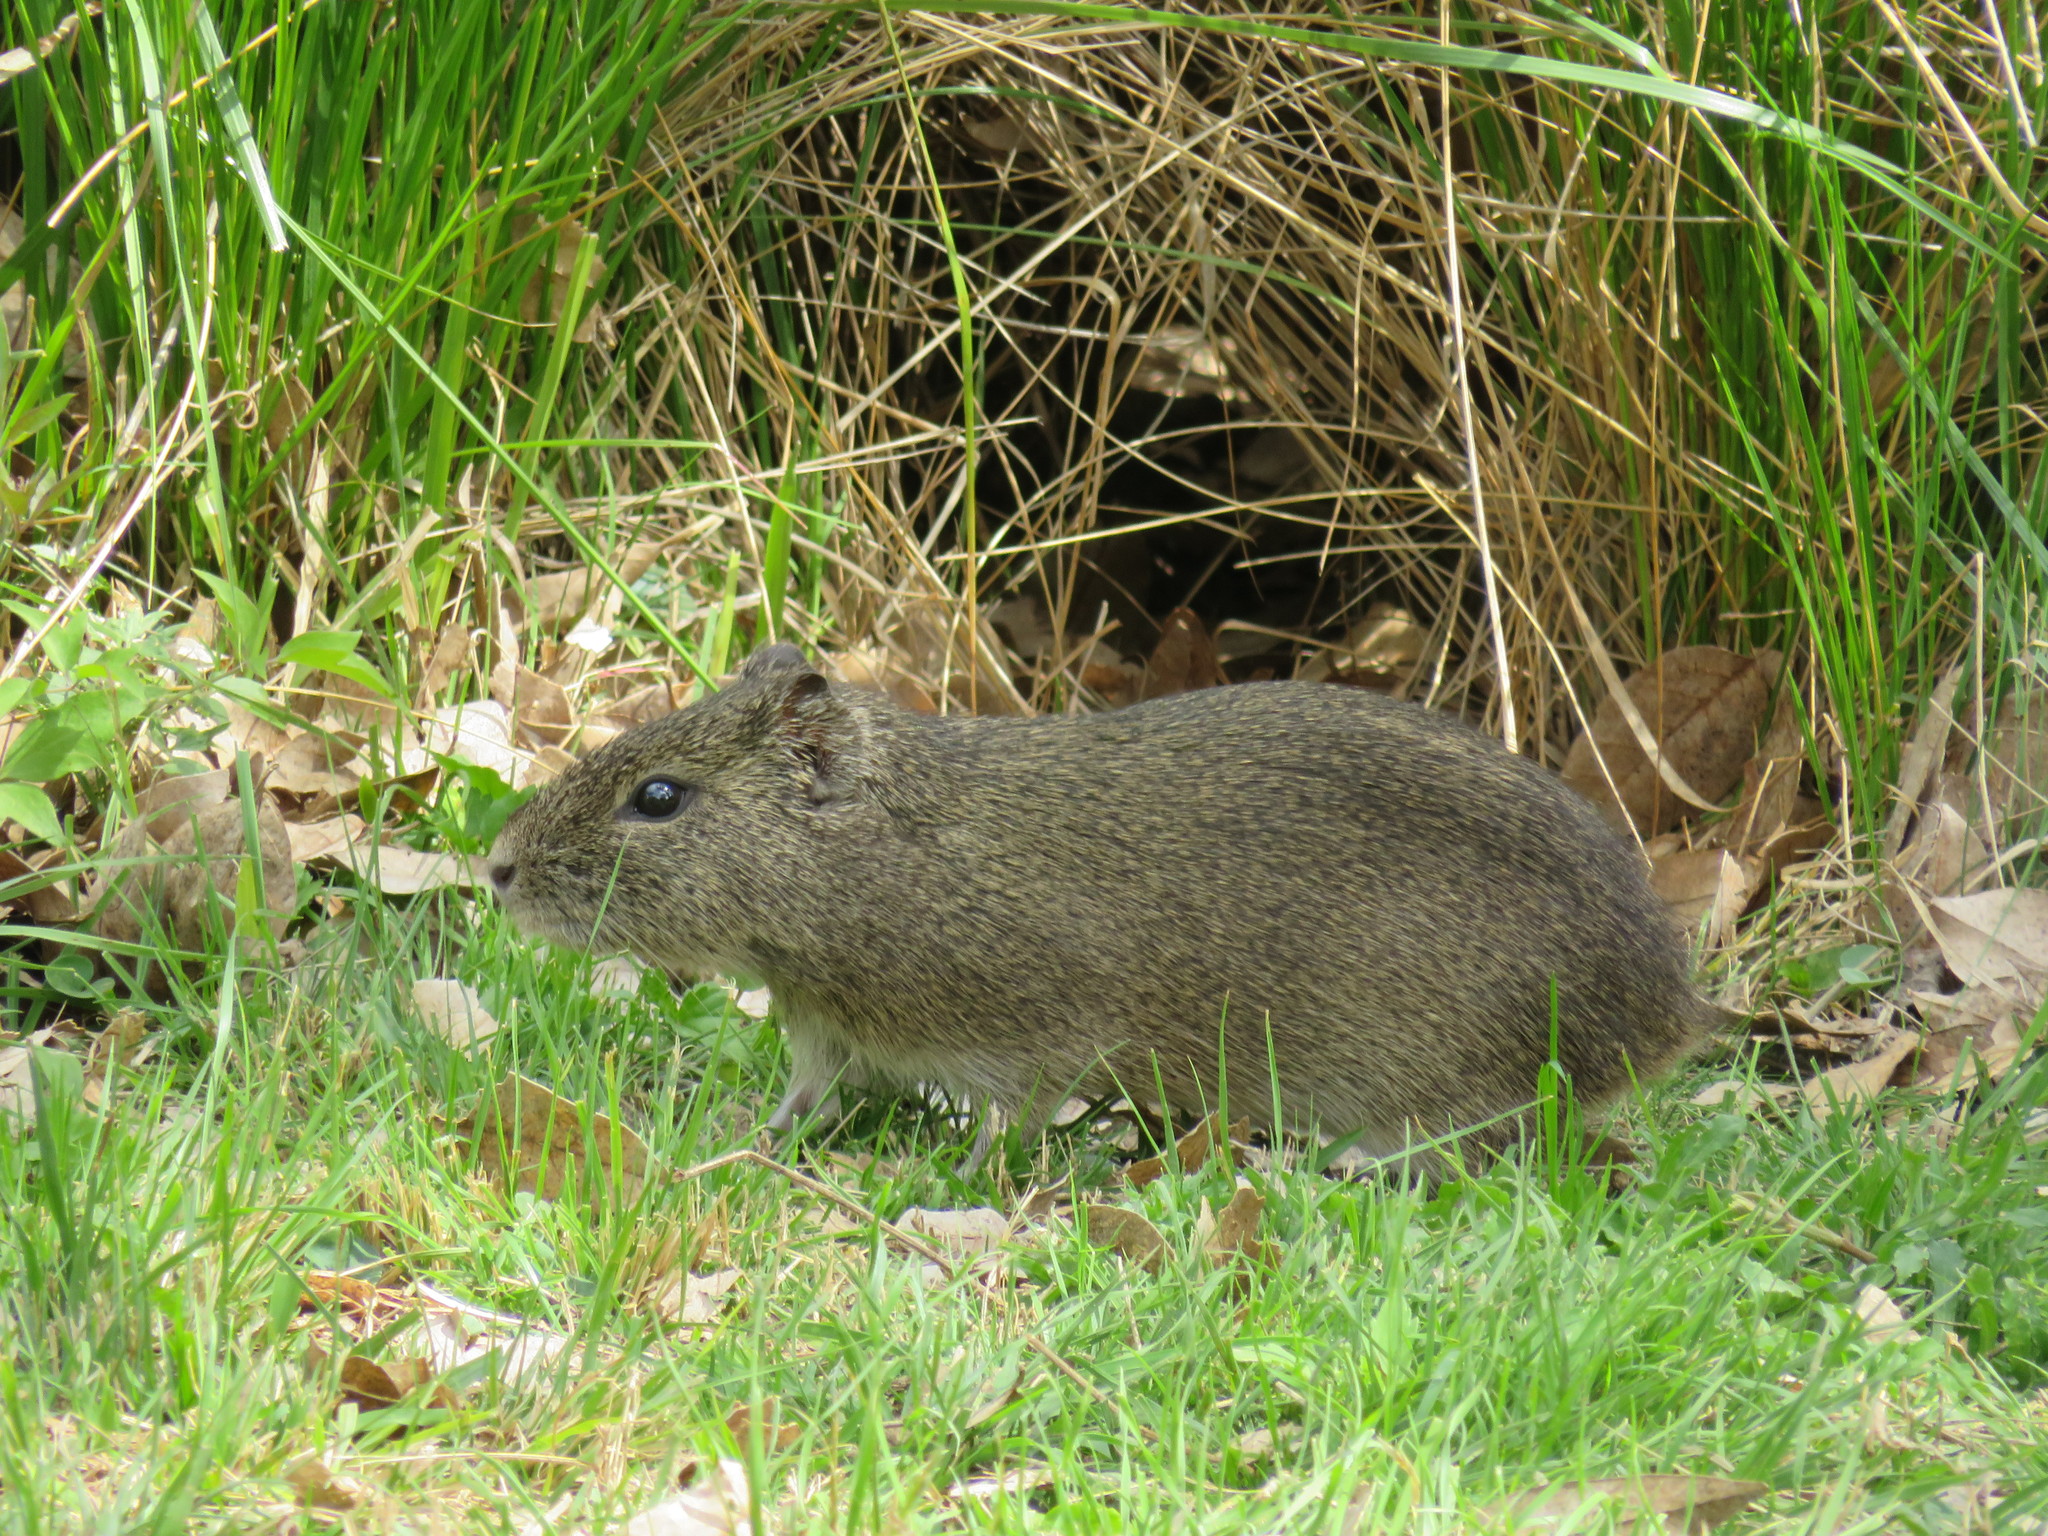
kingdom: Animalia
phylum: Chordata
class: Mammalia
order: Rodentia
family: Caviidae
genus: Cavia
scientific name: Cavia aperea
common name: Brazilian guinea pig
